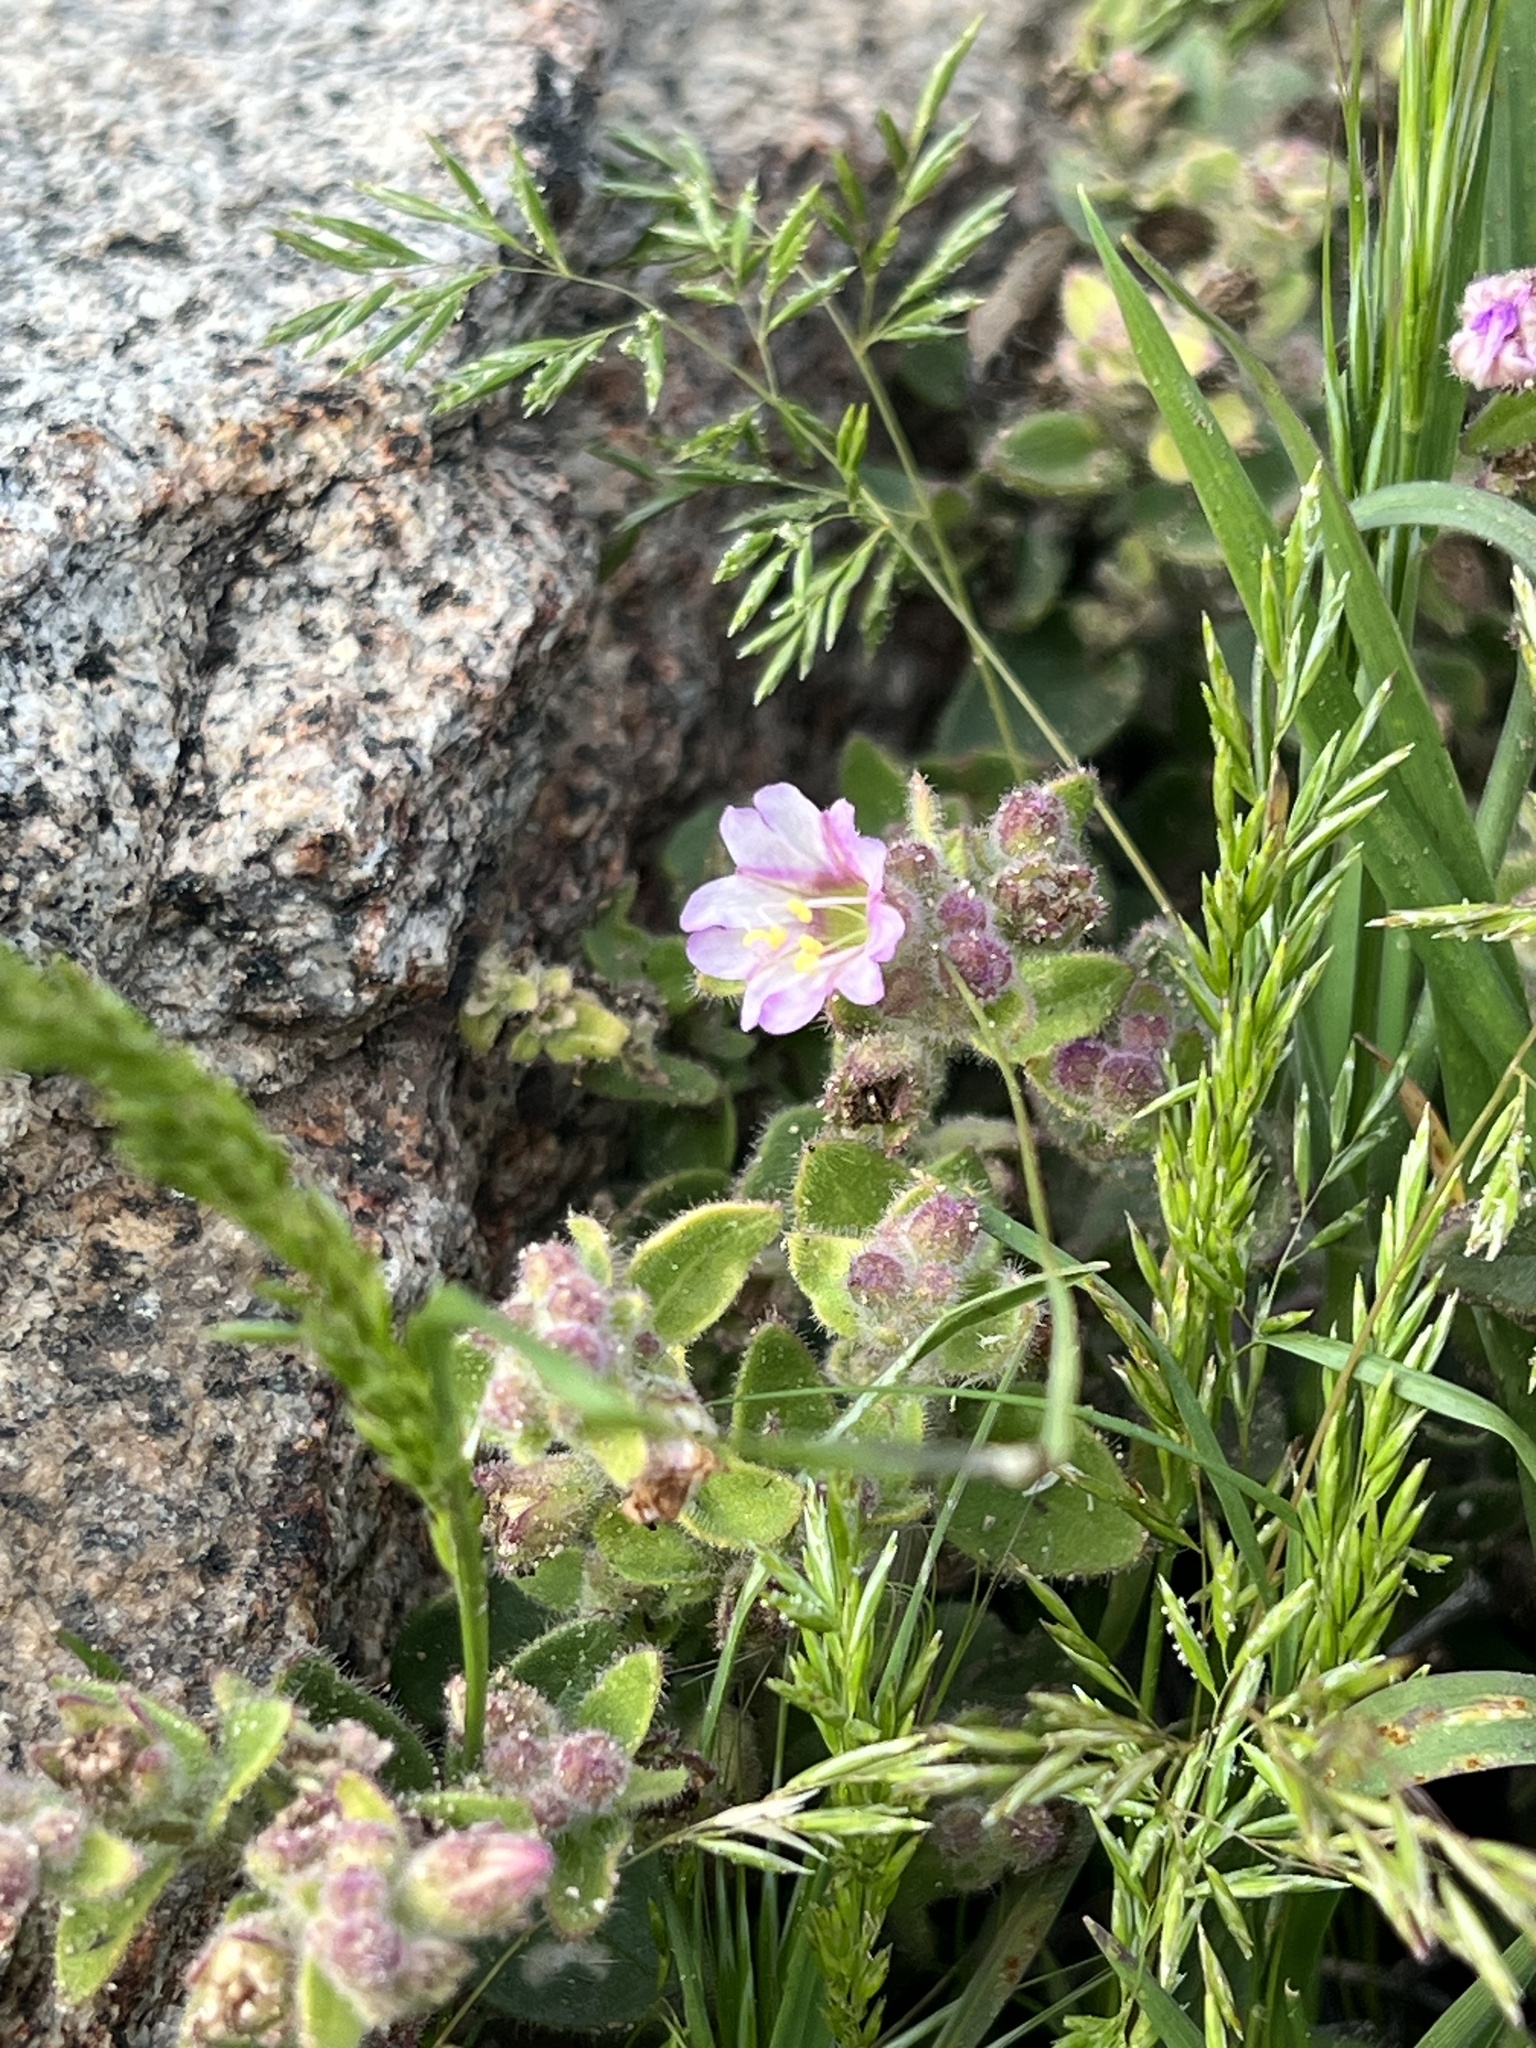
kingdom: Plantae
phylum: Tracheophyta
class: Magnoliopsida
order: Caryophyllales
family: Nyctaginaceae
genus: Mirabilis
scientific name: Mirabilis laevis
